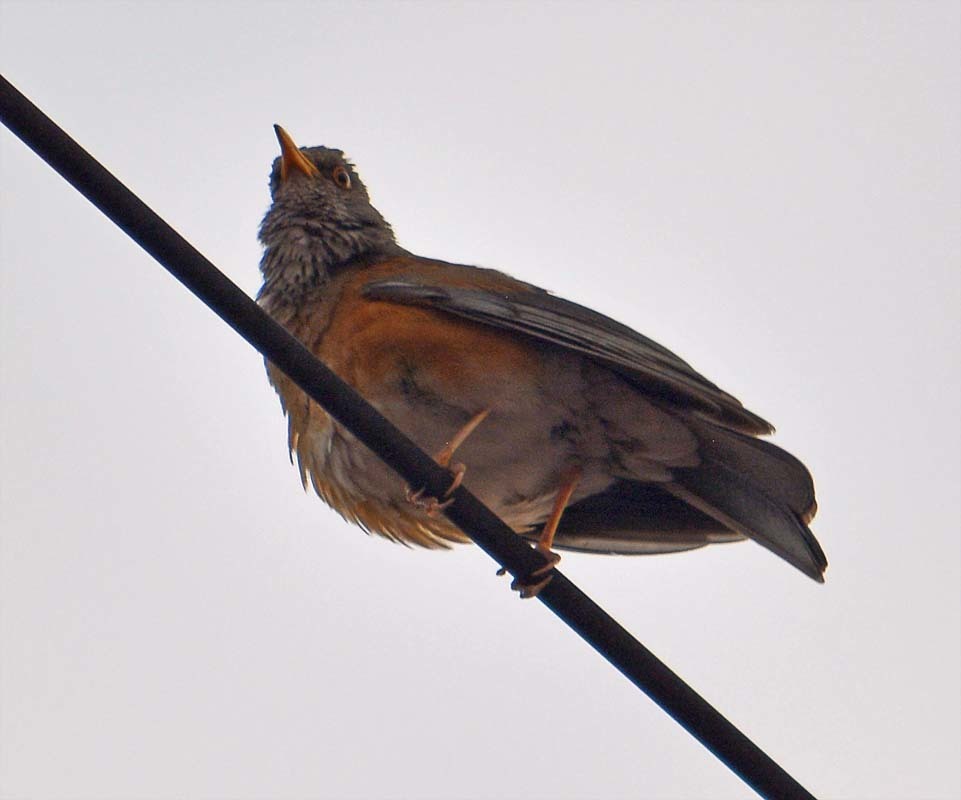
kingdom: Animalia
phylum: Chordata
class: Aves
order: Passeriformes
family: Turdidae
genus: Turdus
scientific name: Turdus rufopalliatus
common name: Rufous-backed robin
